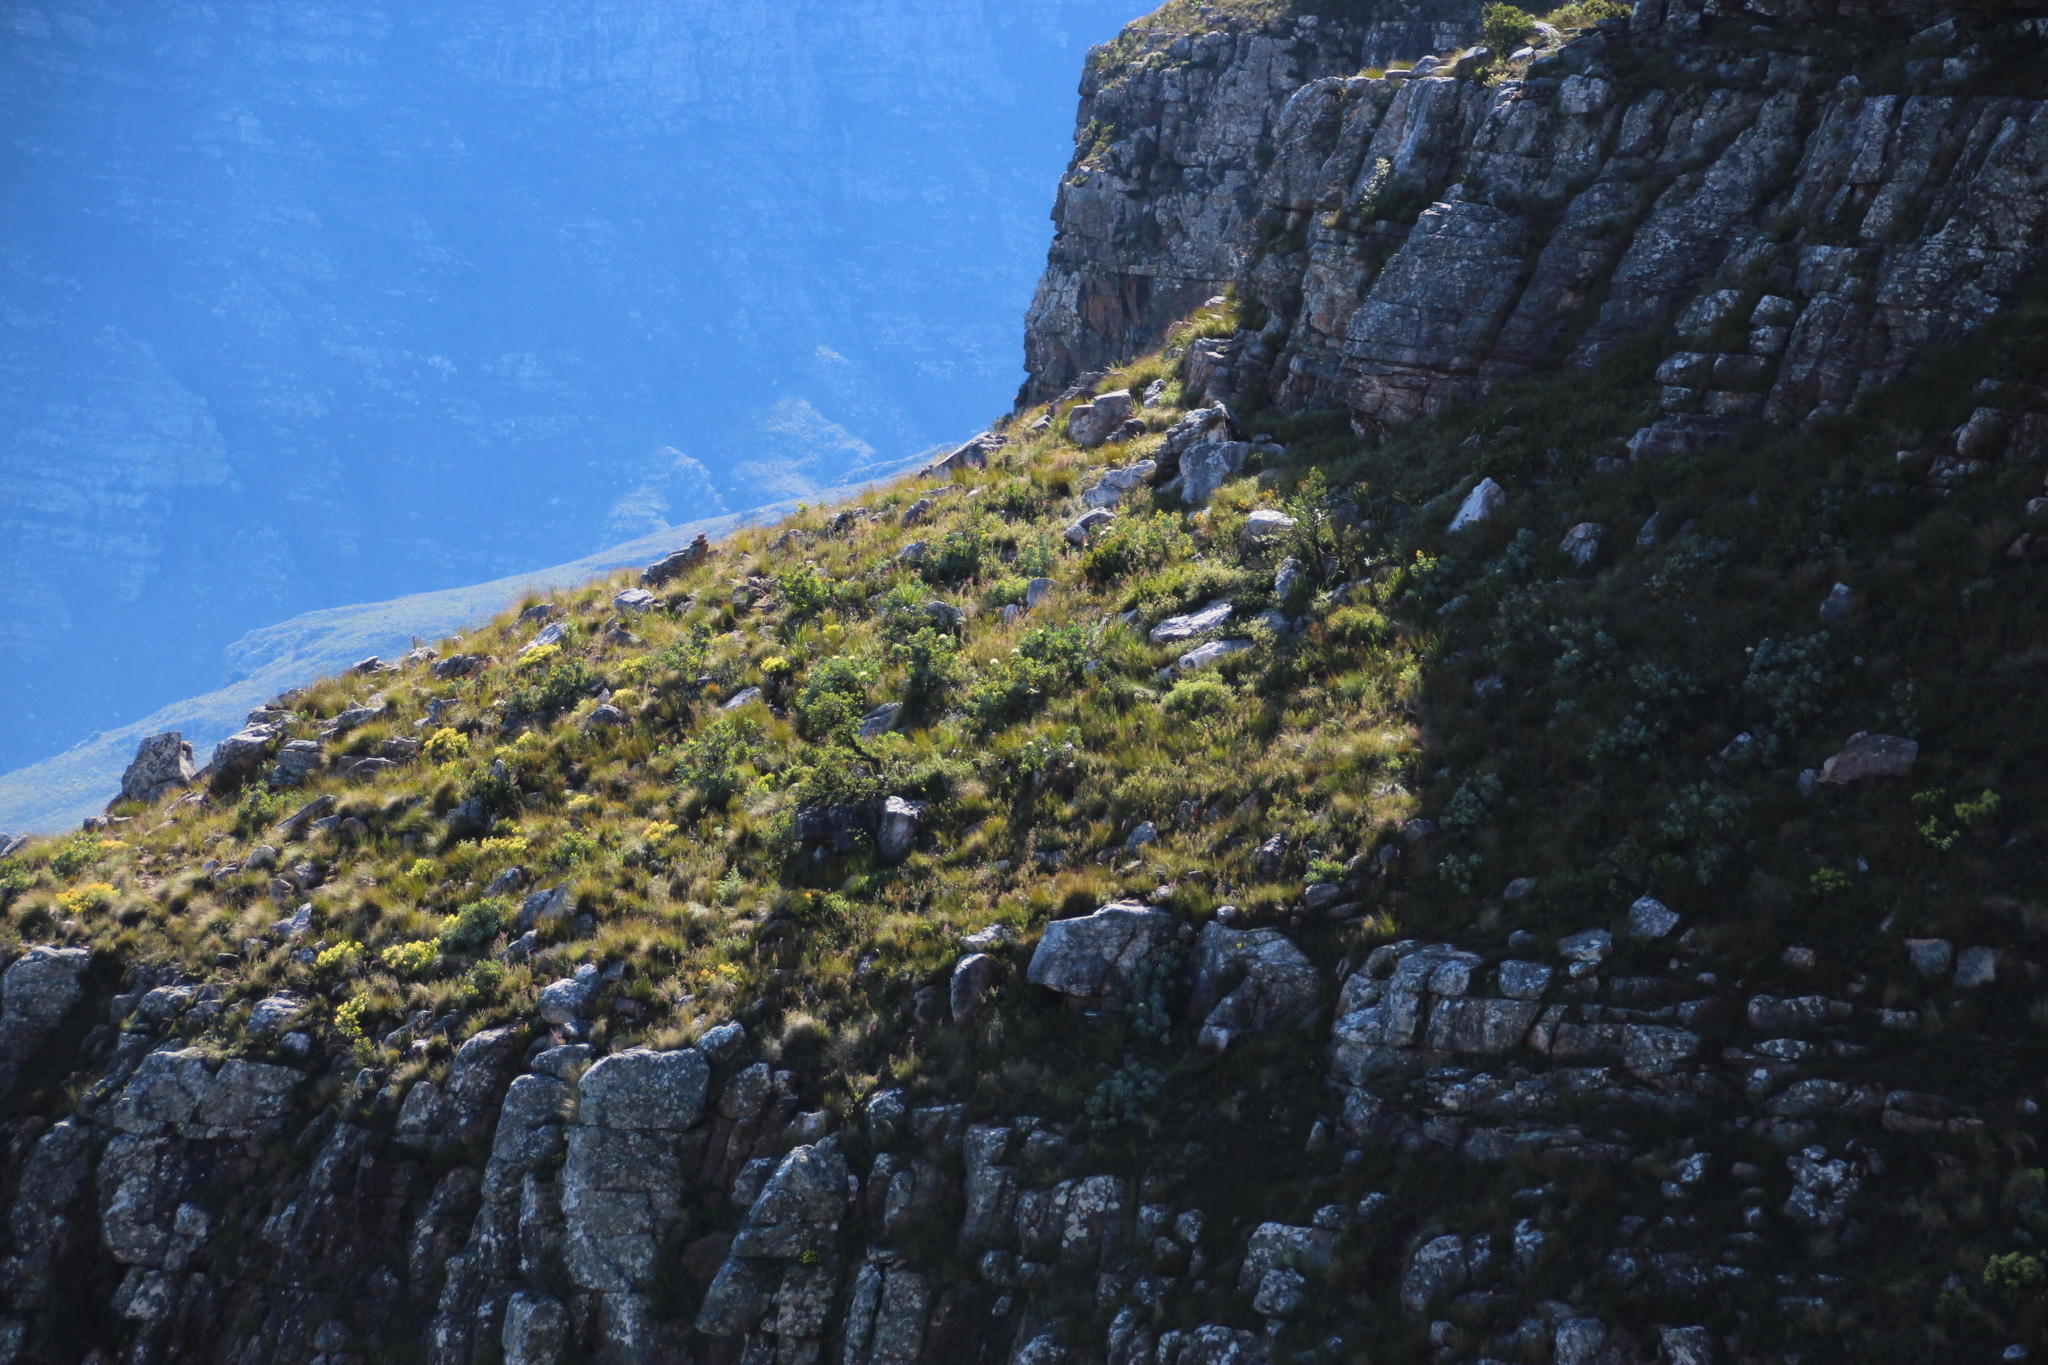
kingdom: Plantae
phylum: Tracheophyta
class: Magnoliopsida
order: Proteales
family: Proteaceae
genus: Protea
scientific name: Protea nitida
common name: Tree protea
